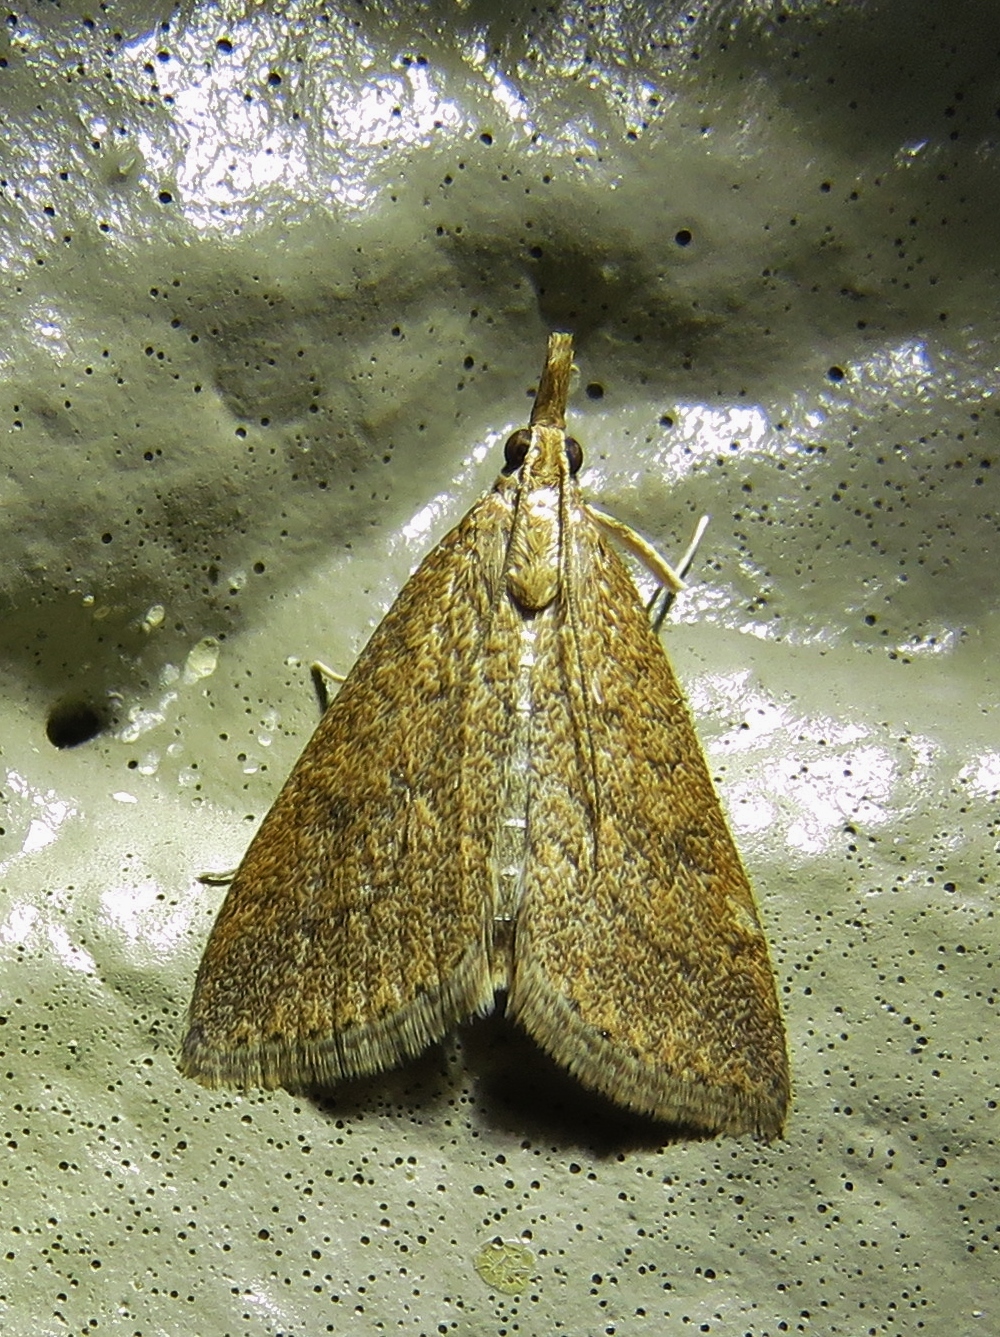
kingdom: Animalia
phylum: Arthropoda
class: Insecta
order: Lepidoptera
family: Crambidae
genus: Udea
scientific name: Udea rubigalis
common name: Celery leaftier moth
